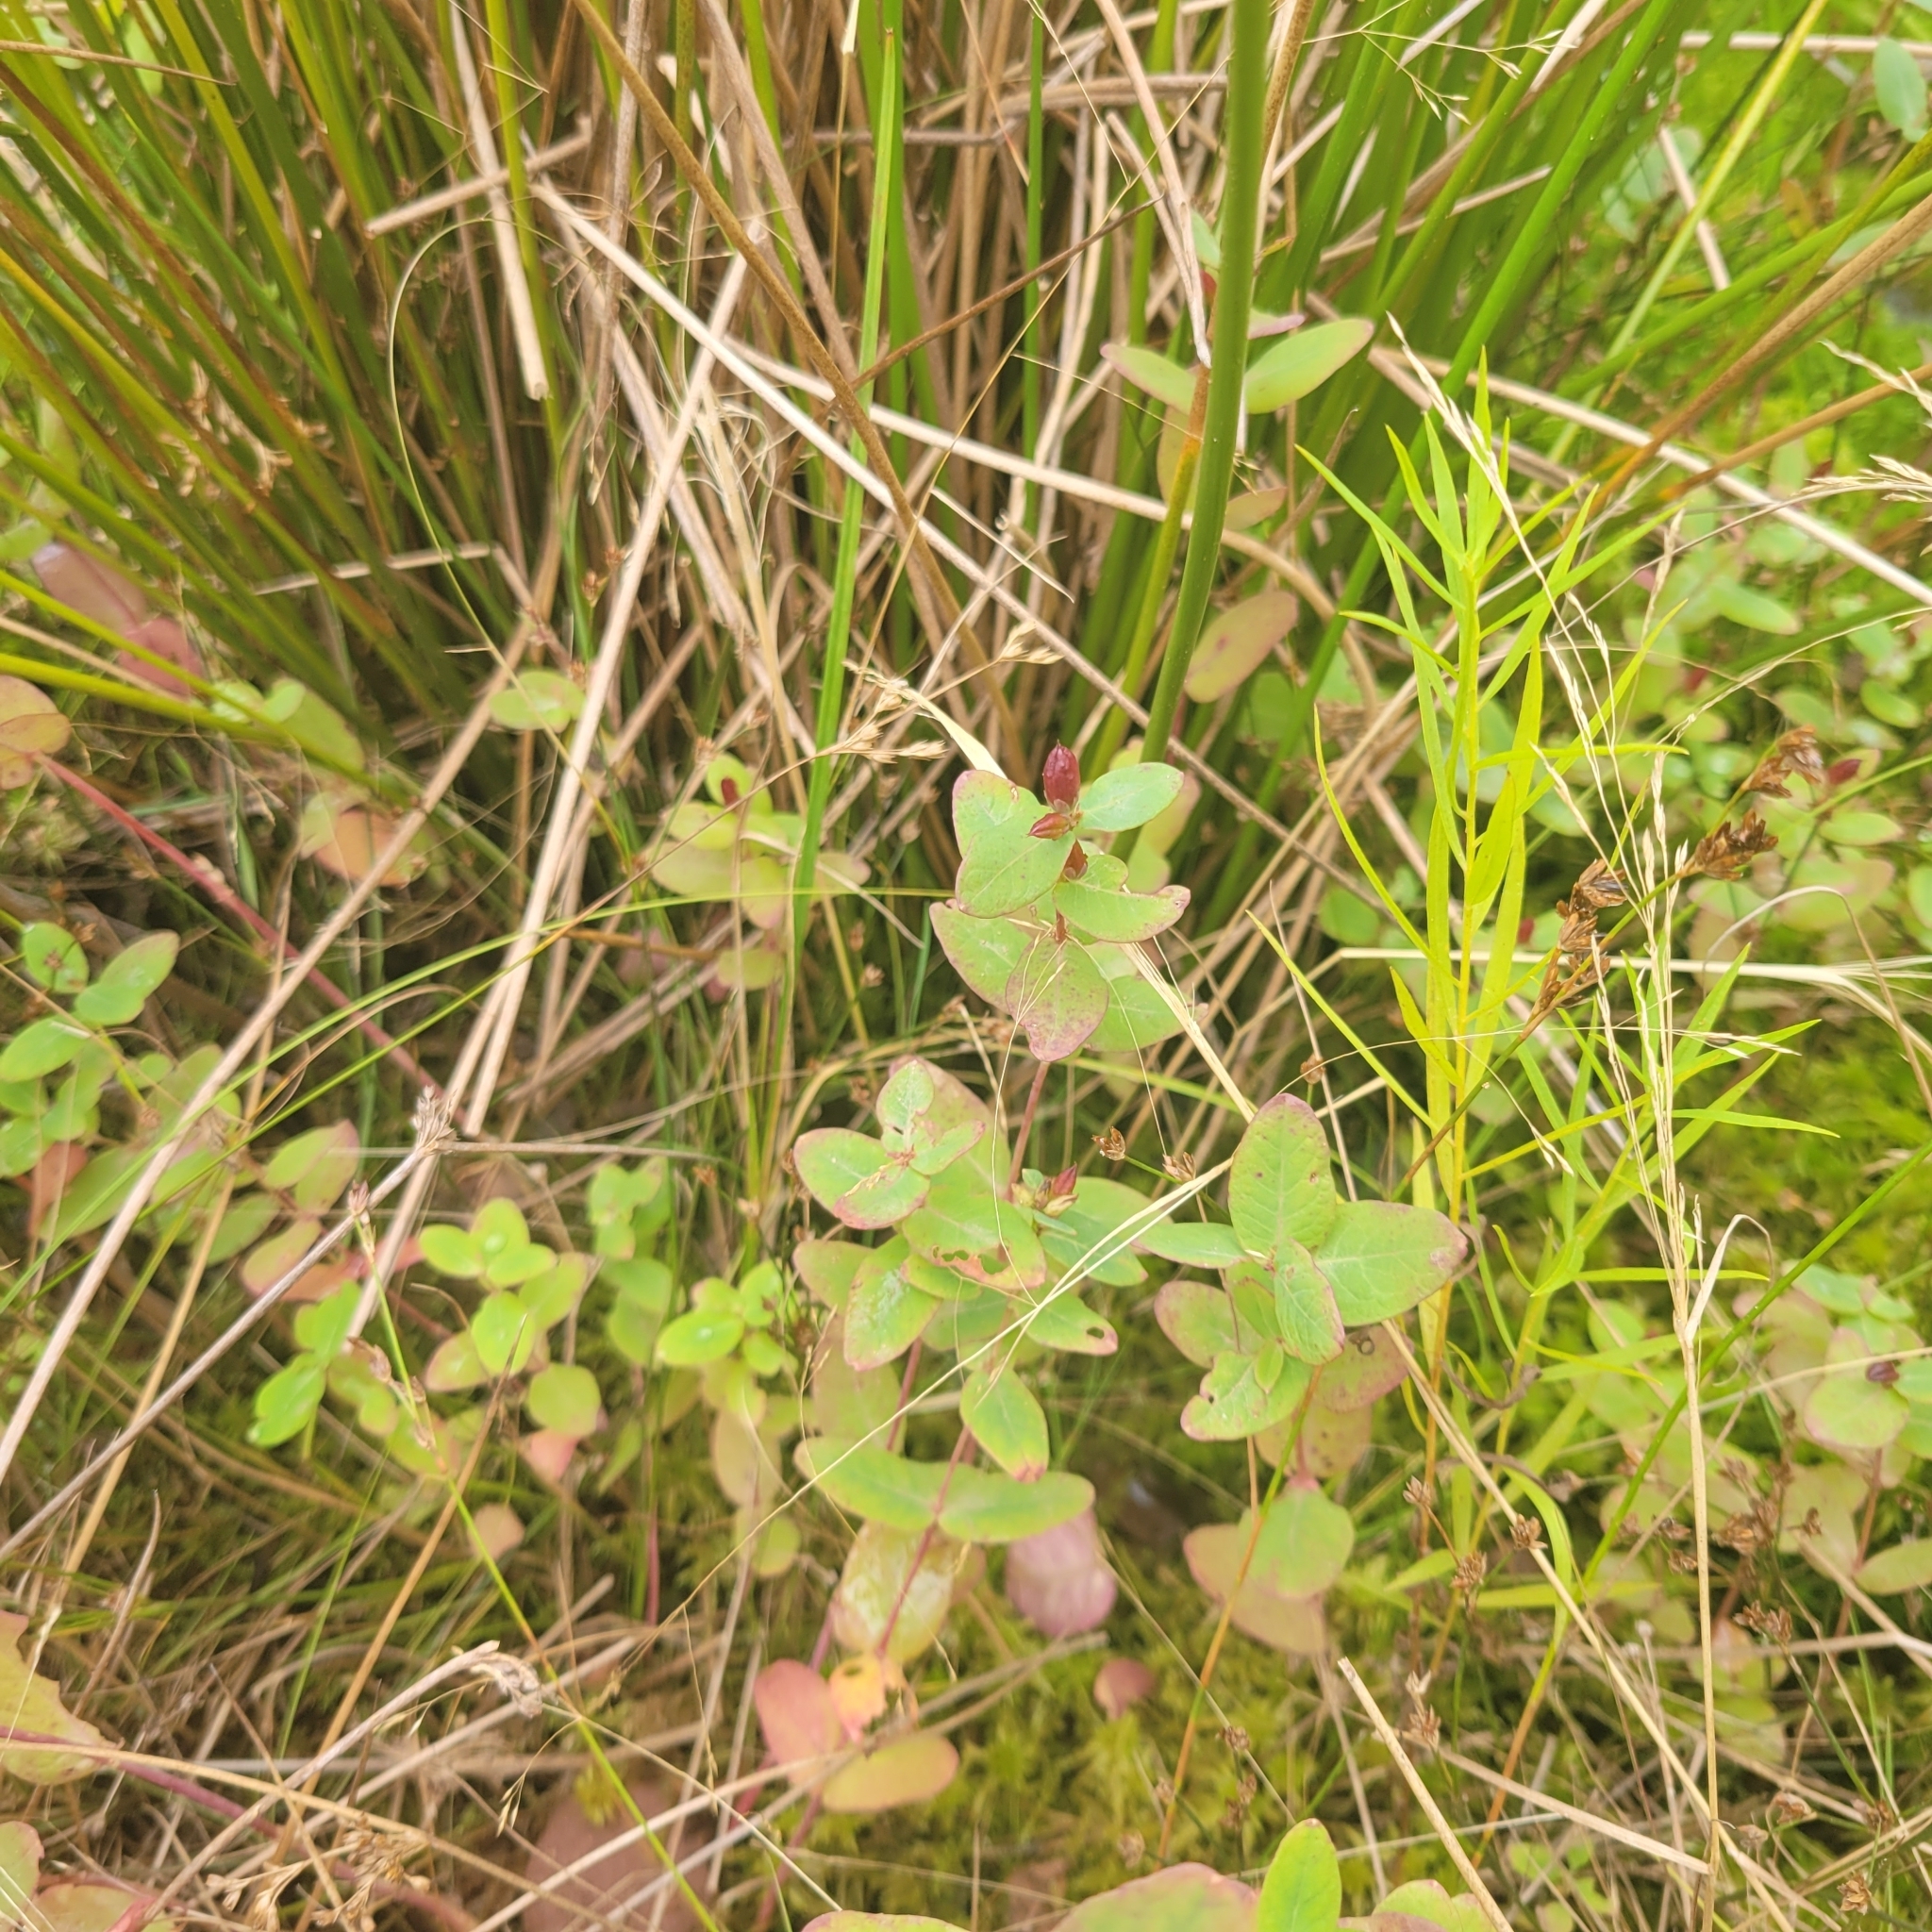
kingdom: Plantae
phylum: Tracheophyta
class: Magnoliopsida
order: Malpighiales
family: Hypericaceae
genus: Triadenum
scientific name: Triadenum fraseri
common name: Fraser's marsh st. johnswort
